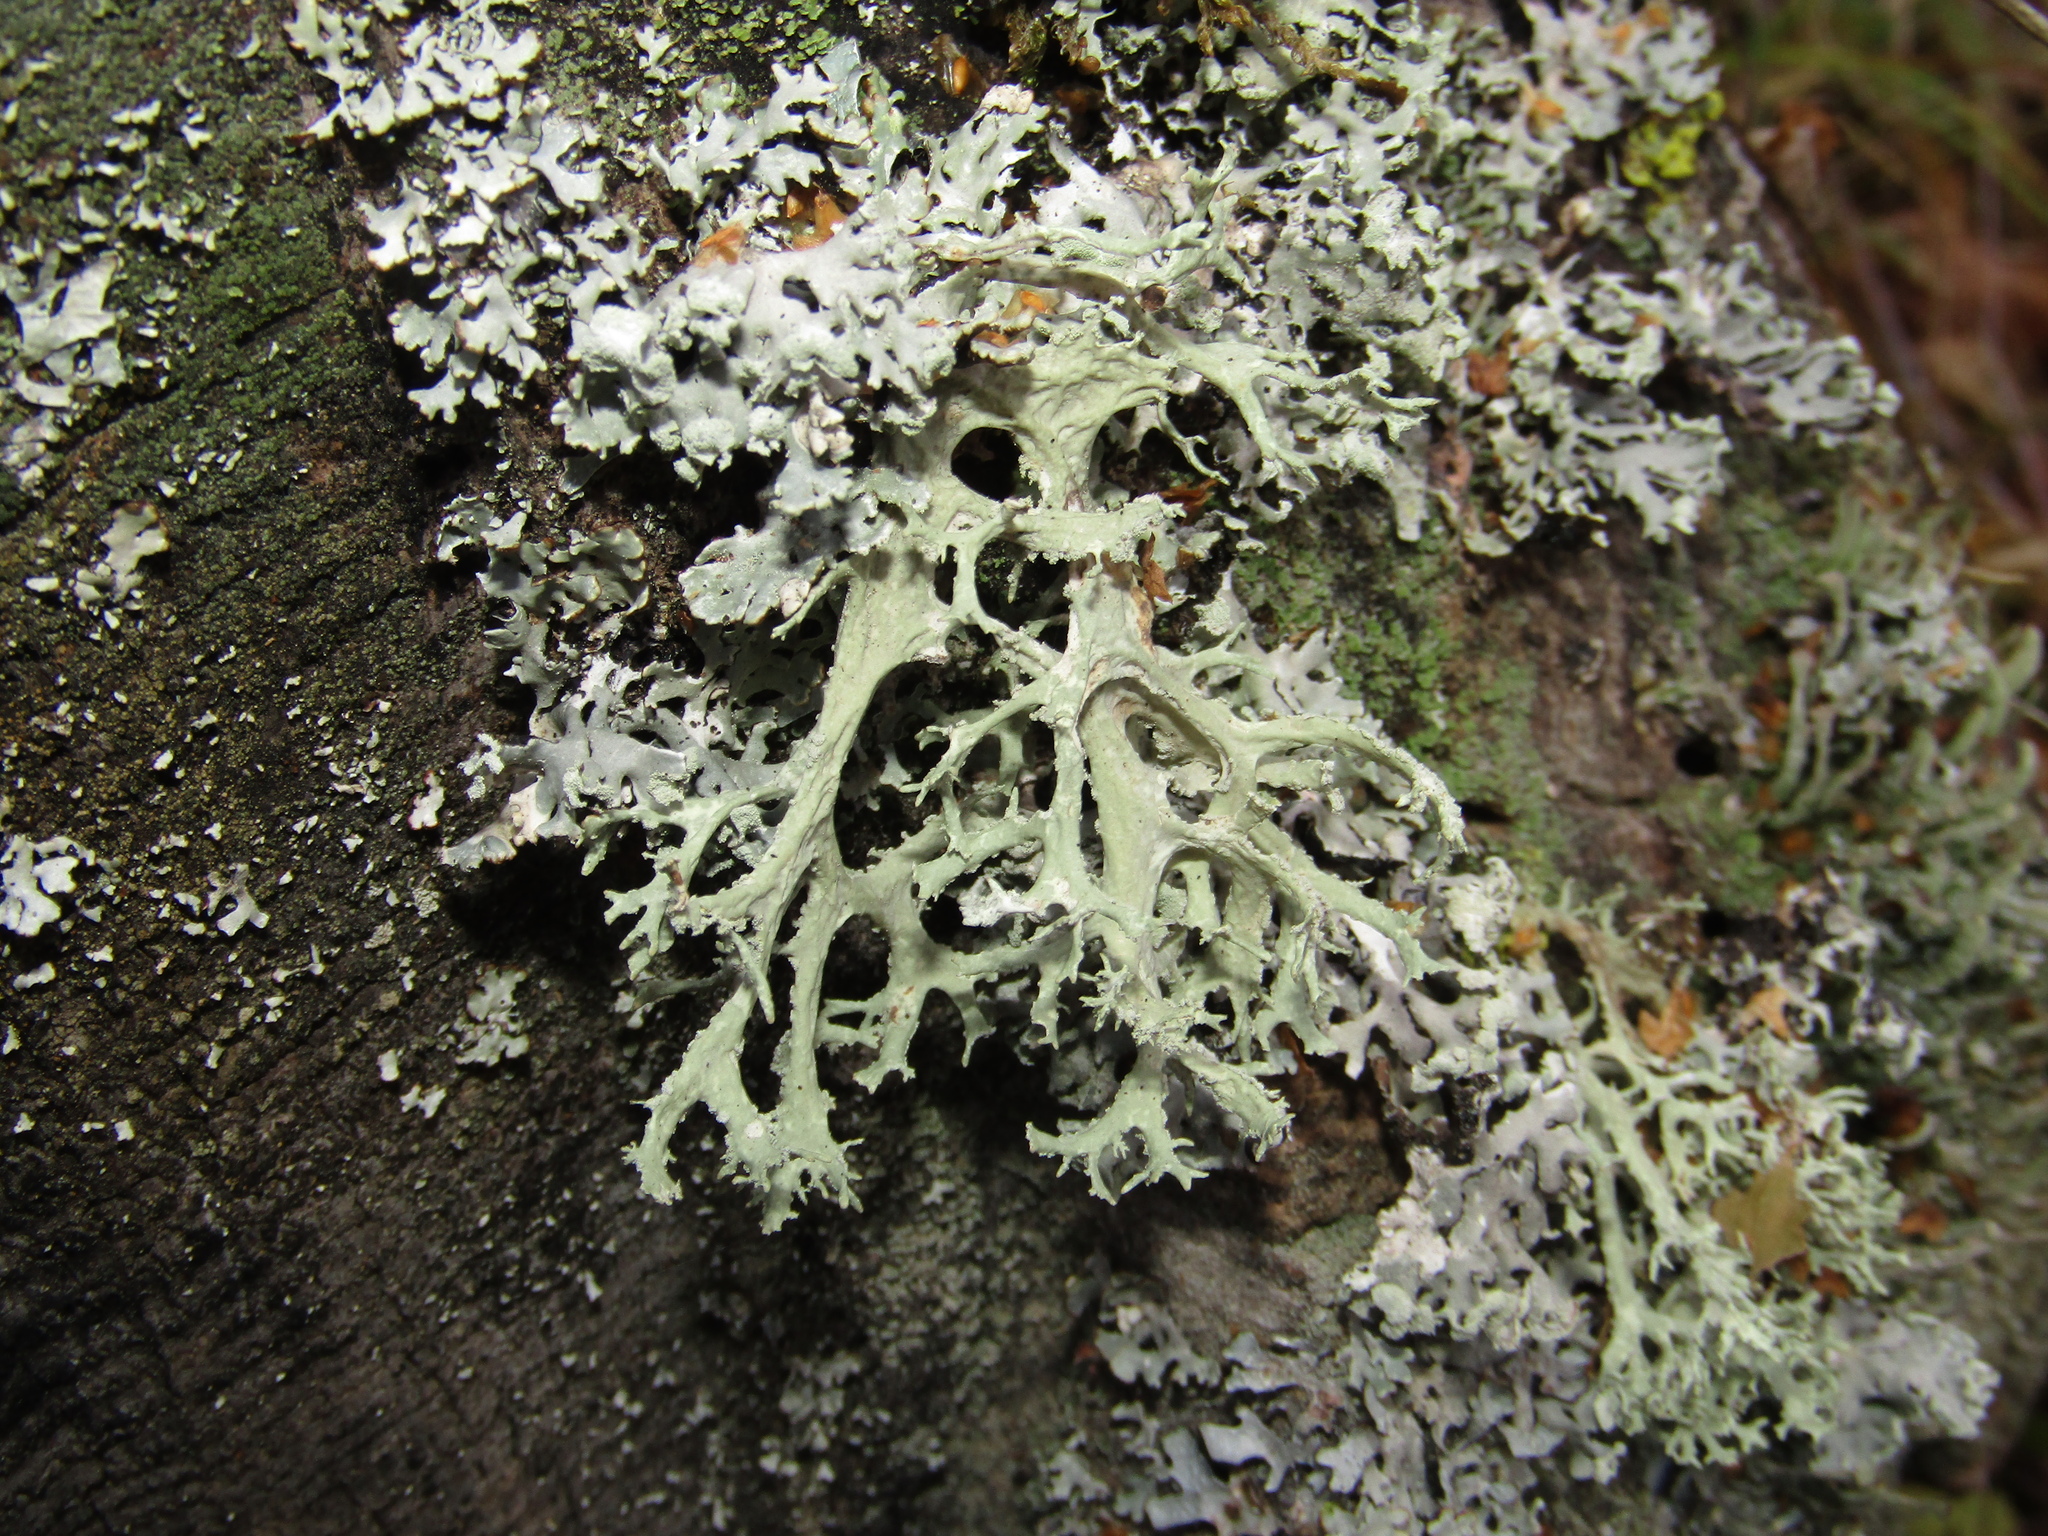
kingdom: Fungi
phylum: Ascomycota
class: Lecanoromycetes
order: Lecanorales
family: Parmeliaceae
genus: Evernia
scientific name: Evernia prunastri
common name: Oak moss
